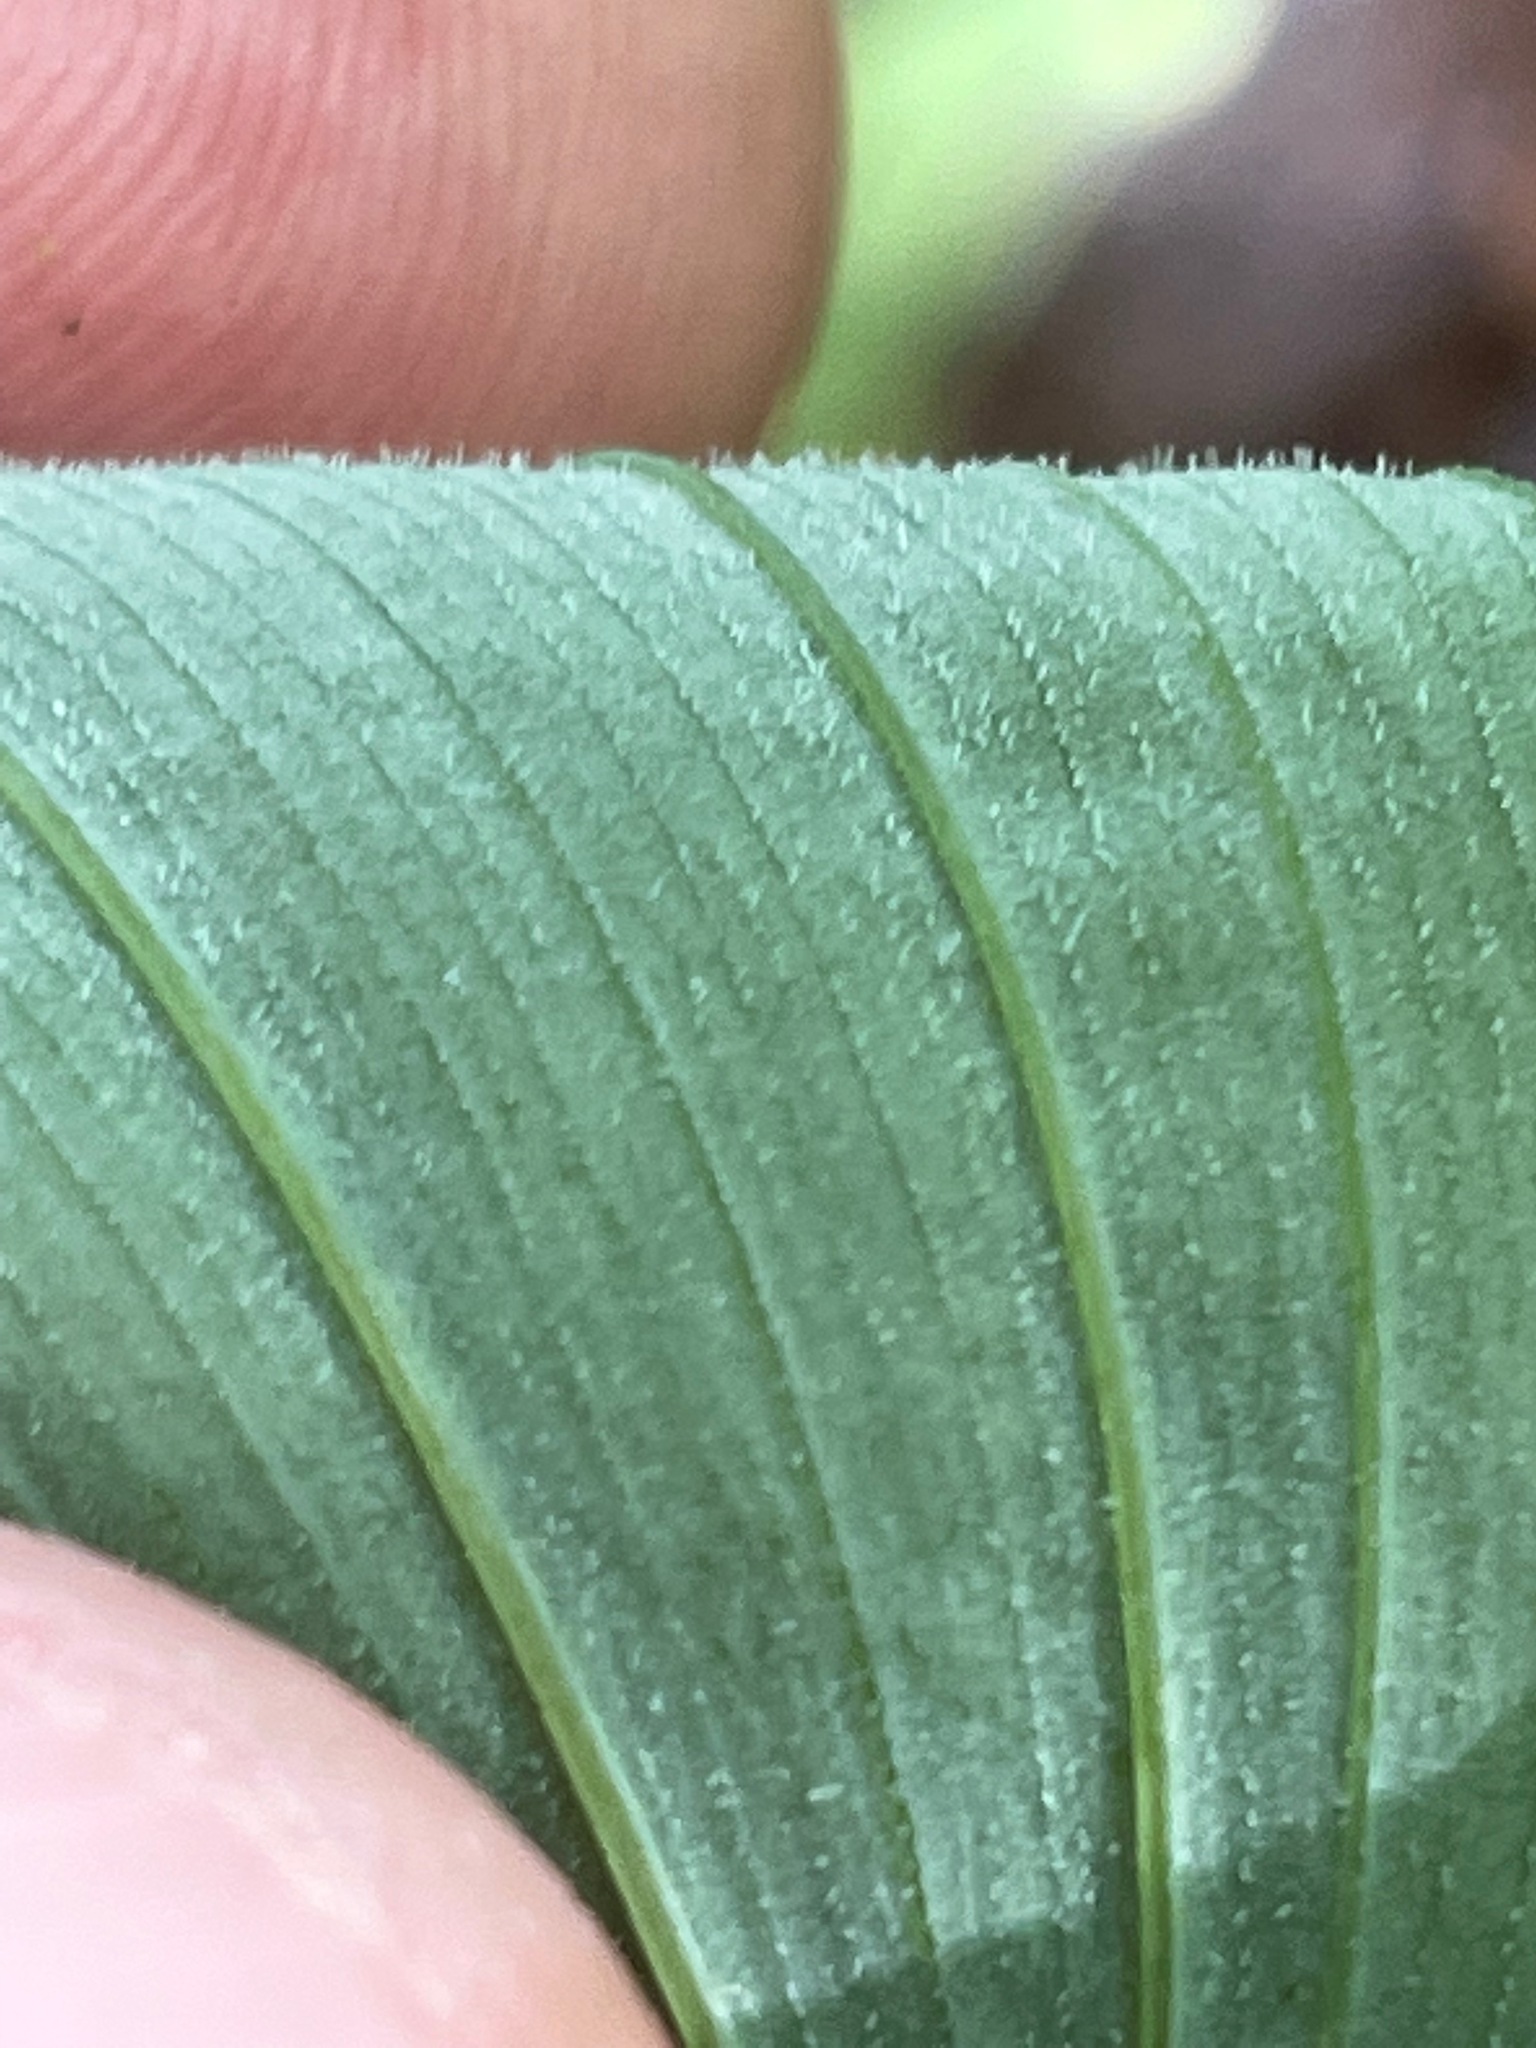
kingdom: Plantae
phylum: Tracheophyta
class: Liliopsida
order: Asparagales
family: Asparagaceae
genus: Polygonatum
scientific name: Polygonatum pubescens
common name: Downy solomon's seal
